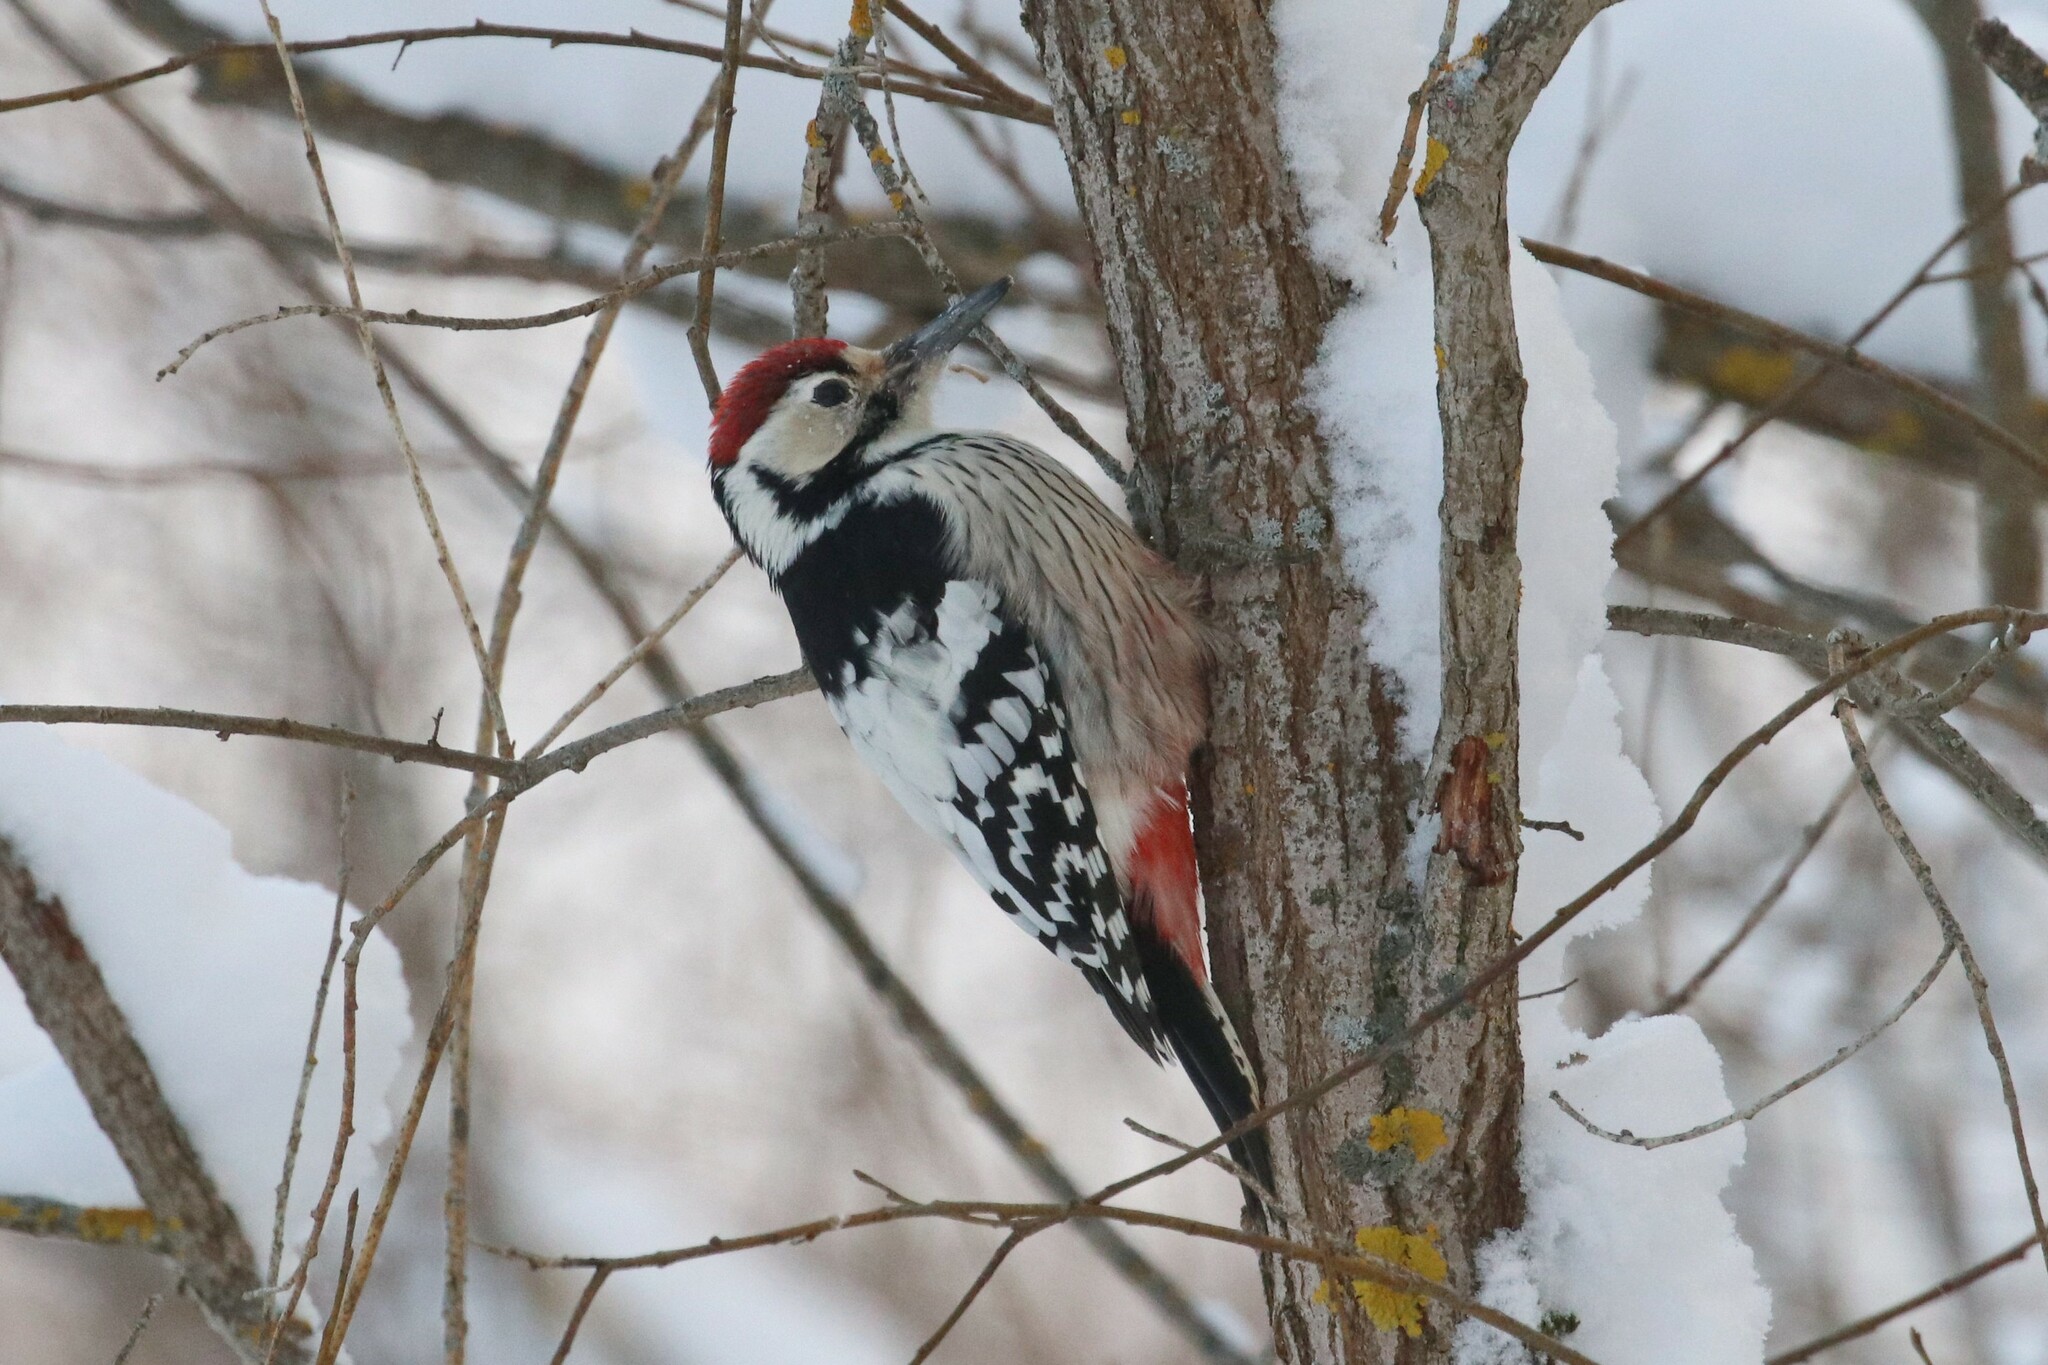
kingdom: Animalia
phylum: Chordata
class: Aves
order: Piciformes
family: Picidae
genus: Dendrocopos
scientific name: Dendrocopos leucotos
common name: White-backed woodpecker
